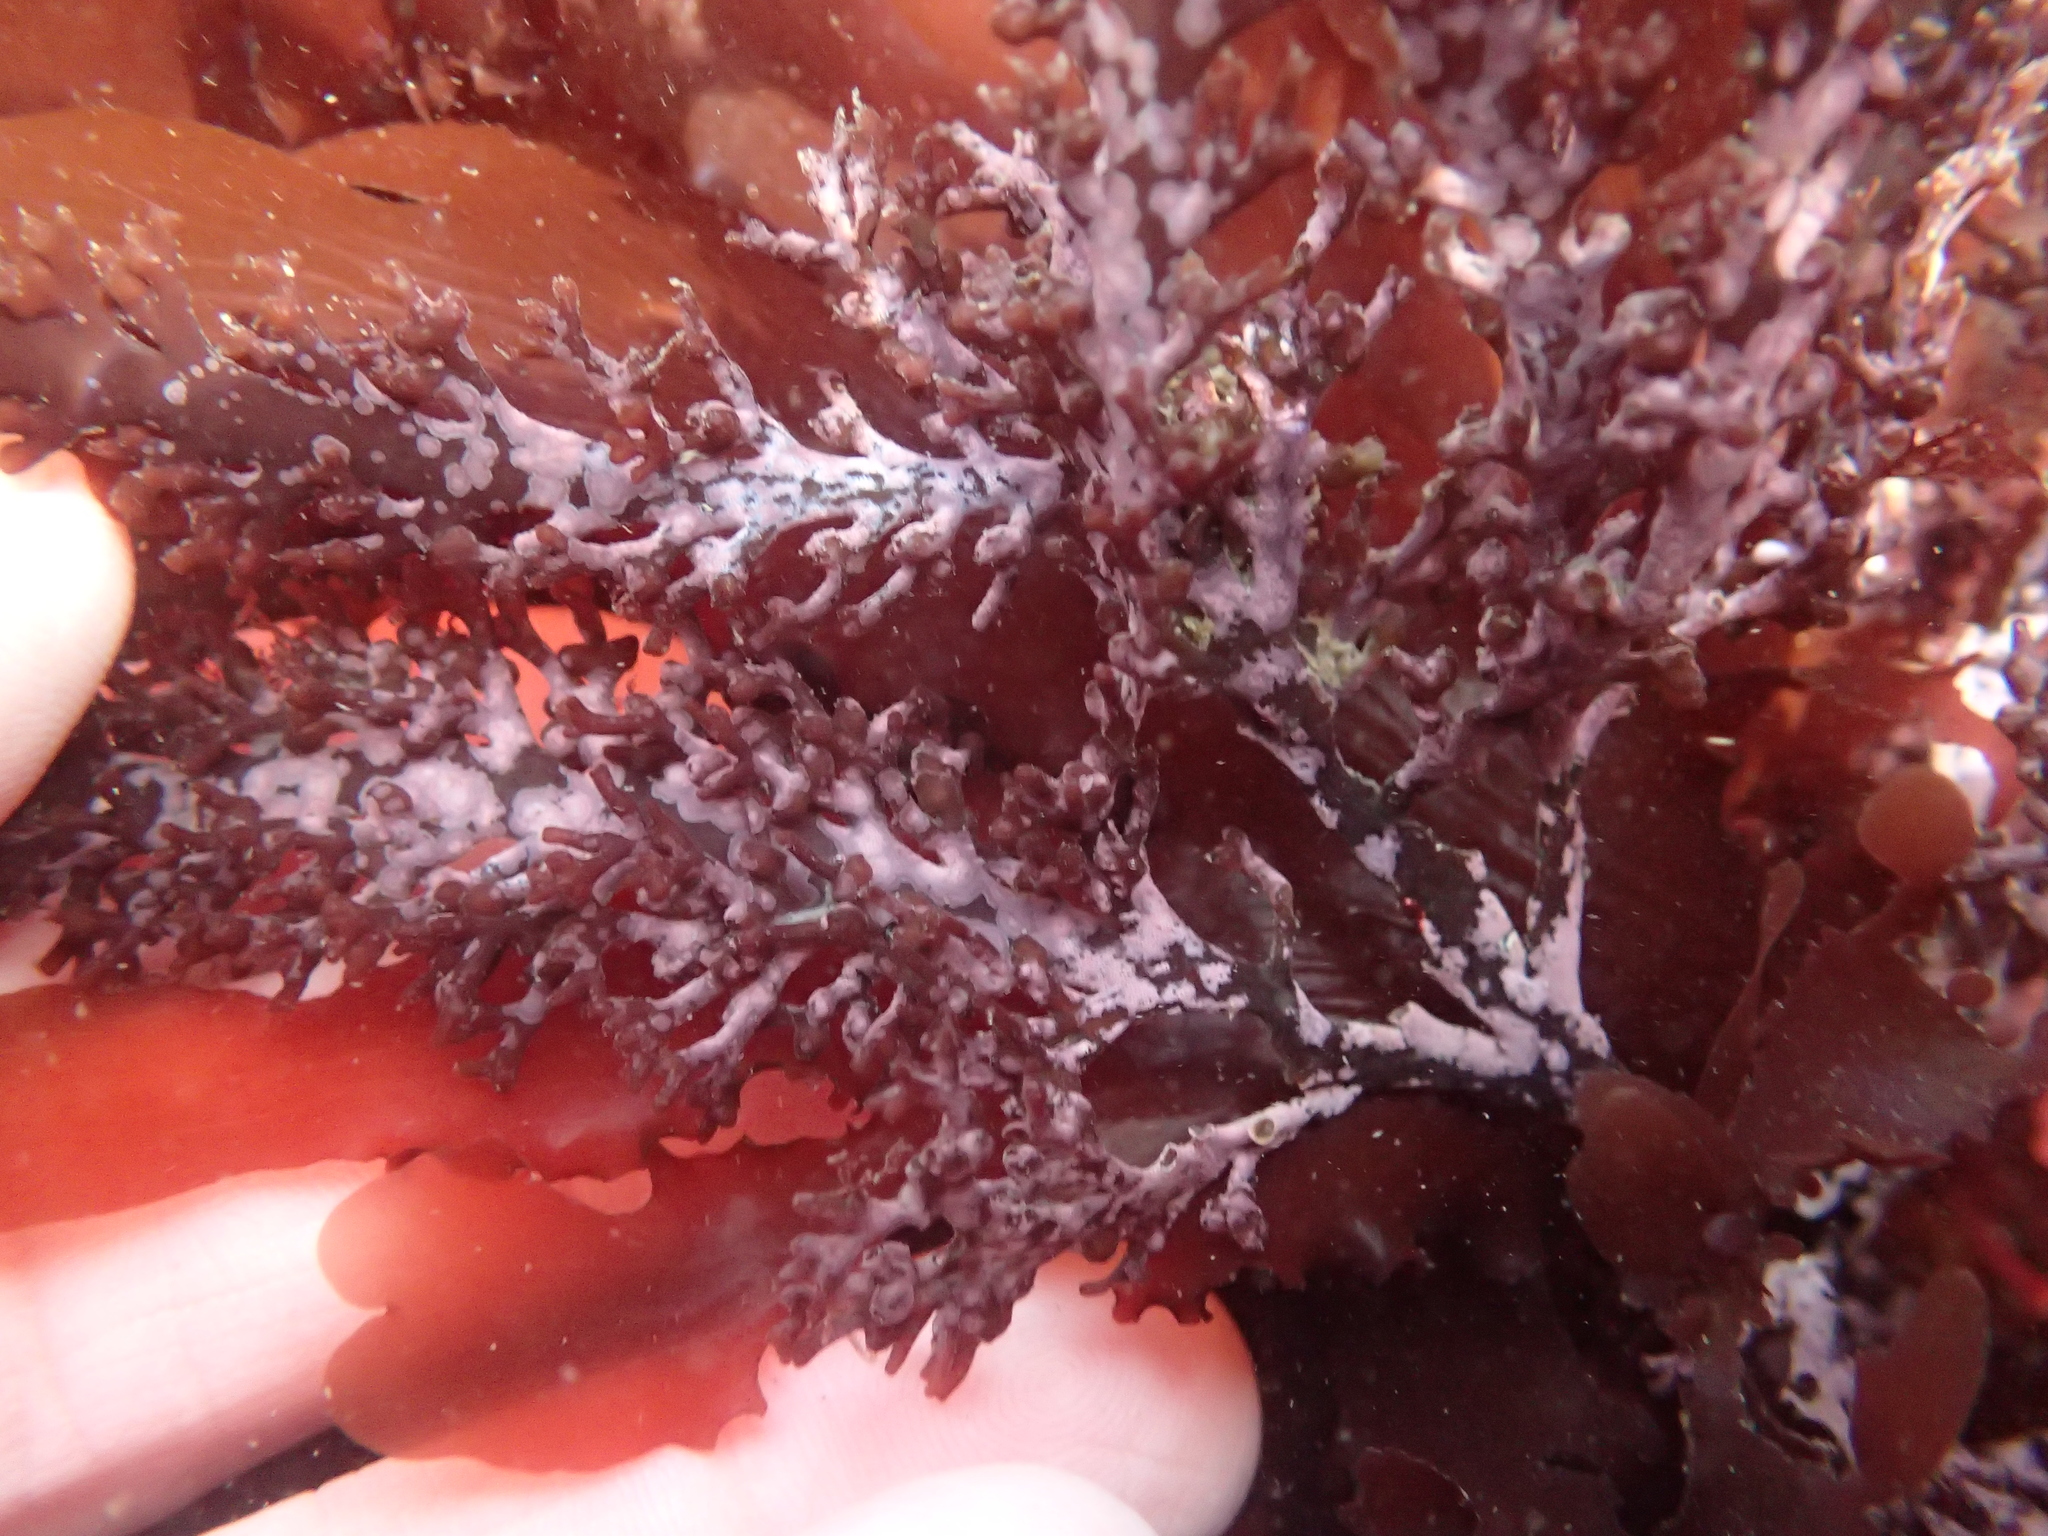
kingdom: Plantae
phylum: Rhodophyta
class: Florideophyceae
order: Ceramiales
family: Rhodomelaceae
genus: Osmundea
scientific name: Osmundea spectabilis
